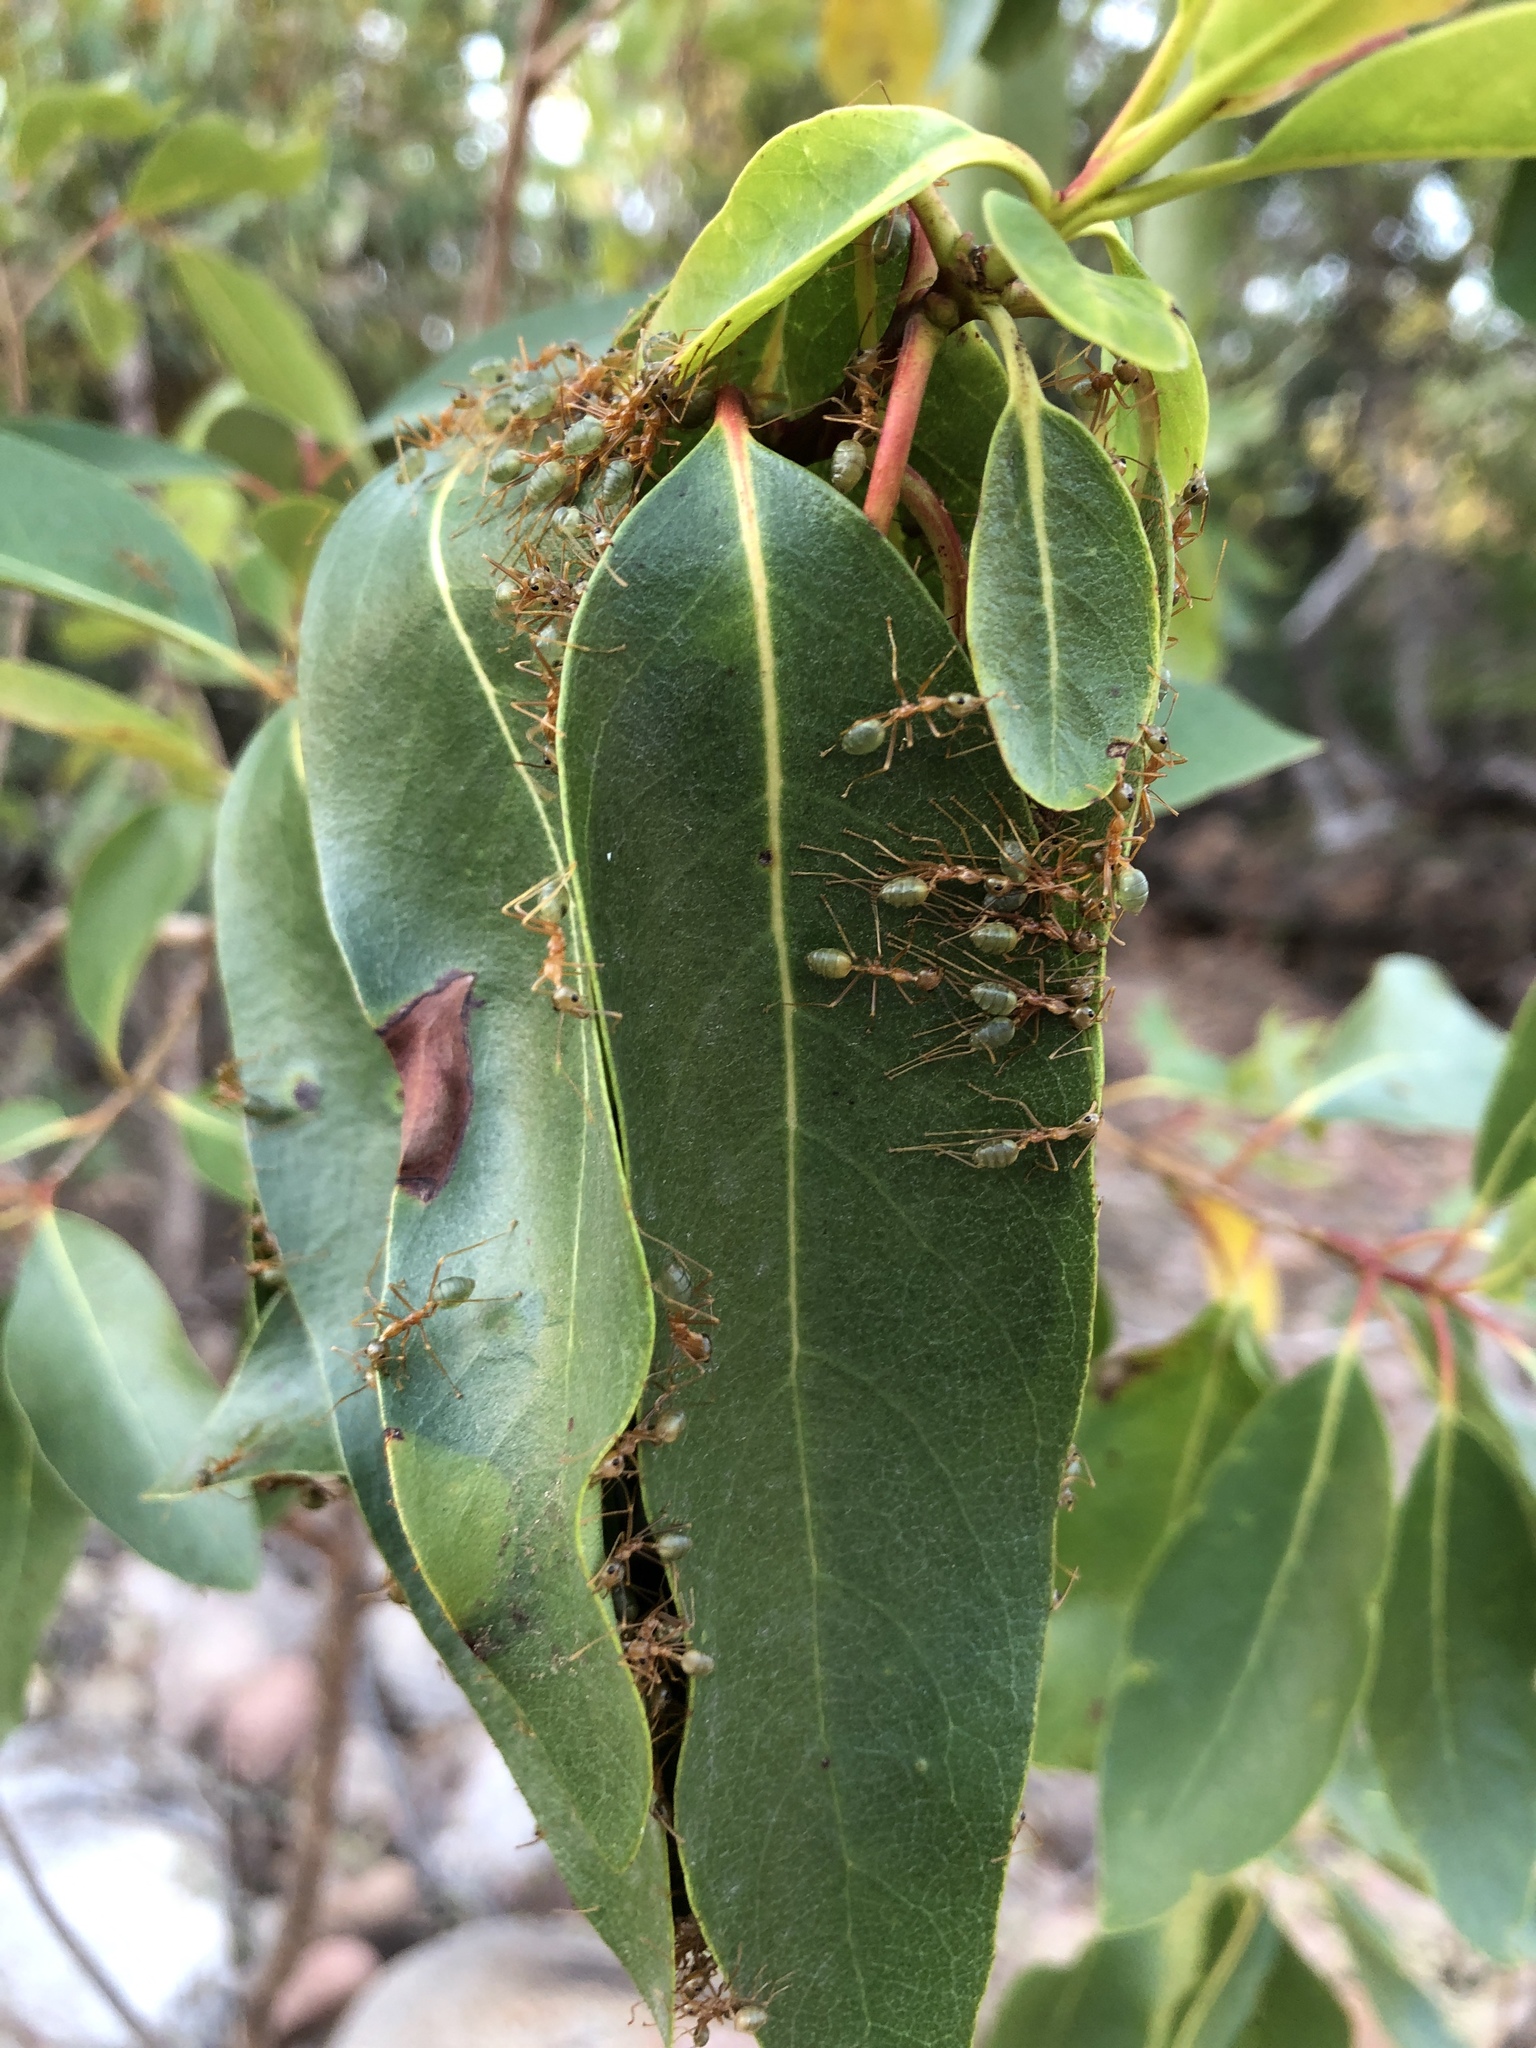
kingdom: Animalia
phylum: Arthropoda
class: Insecta
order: Hymenoptera
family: Formicidae
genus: Oecophylla
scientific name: Oecophylla smaragdina
